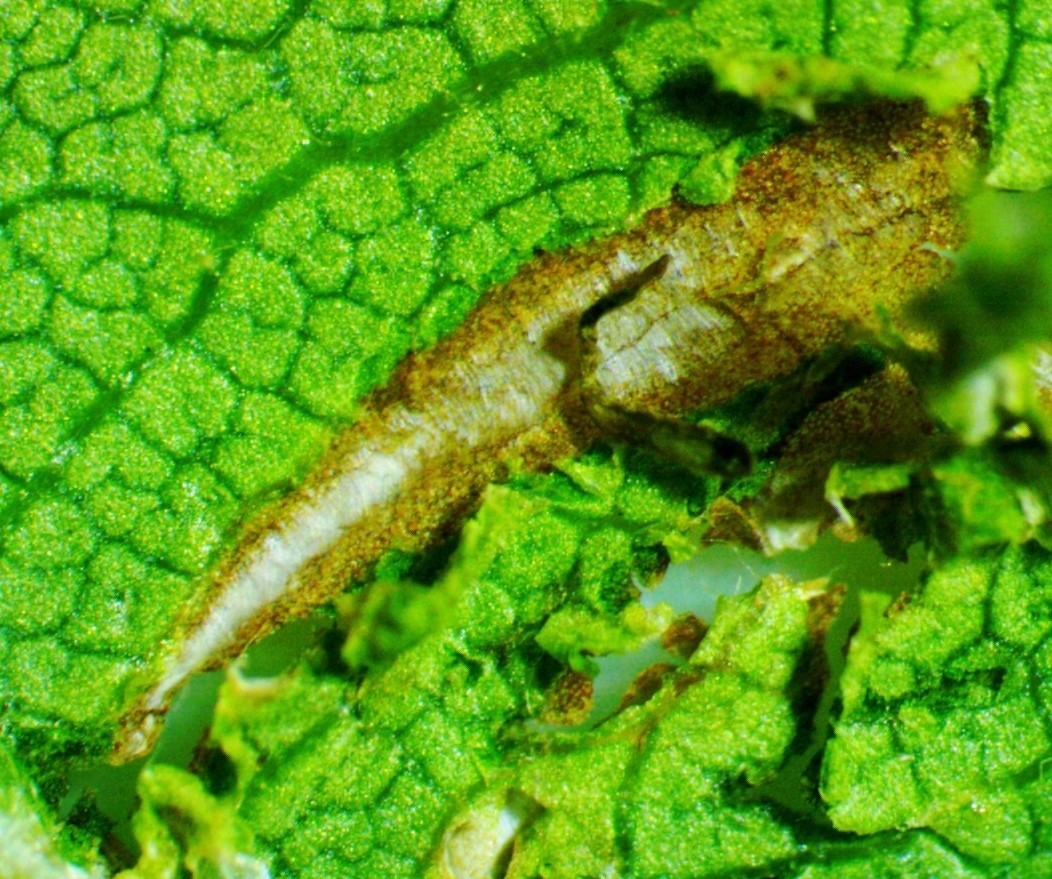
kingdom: Animalia
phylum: Arthropoda
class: Insecta
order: Lepidoptera
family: Tischeriidae
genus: Coptotriche
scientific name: Coptotriche aenea
